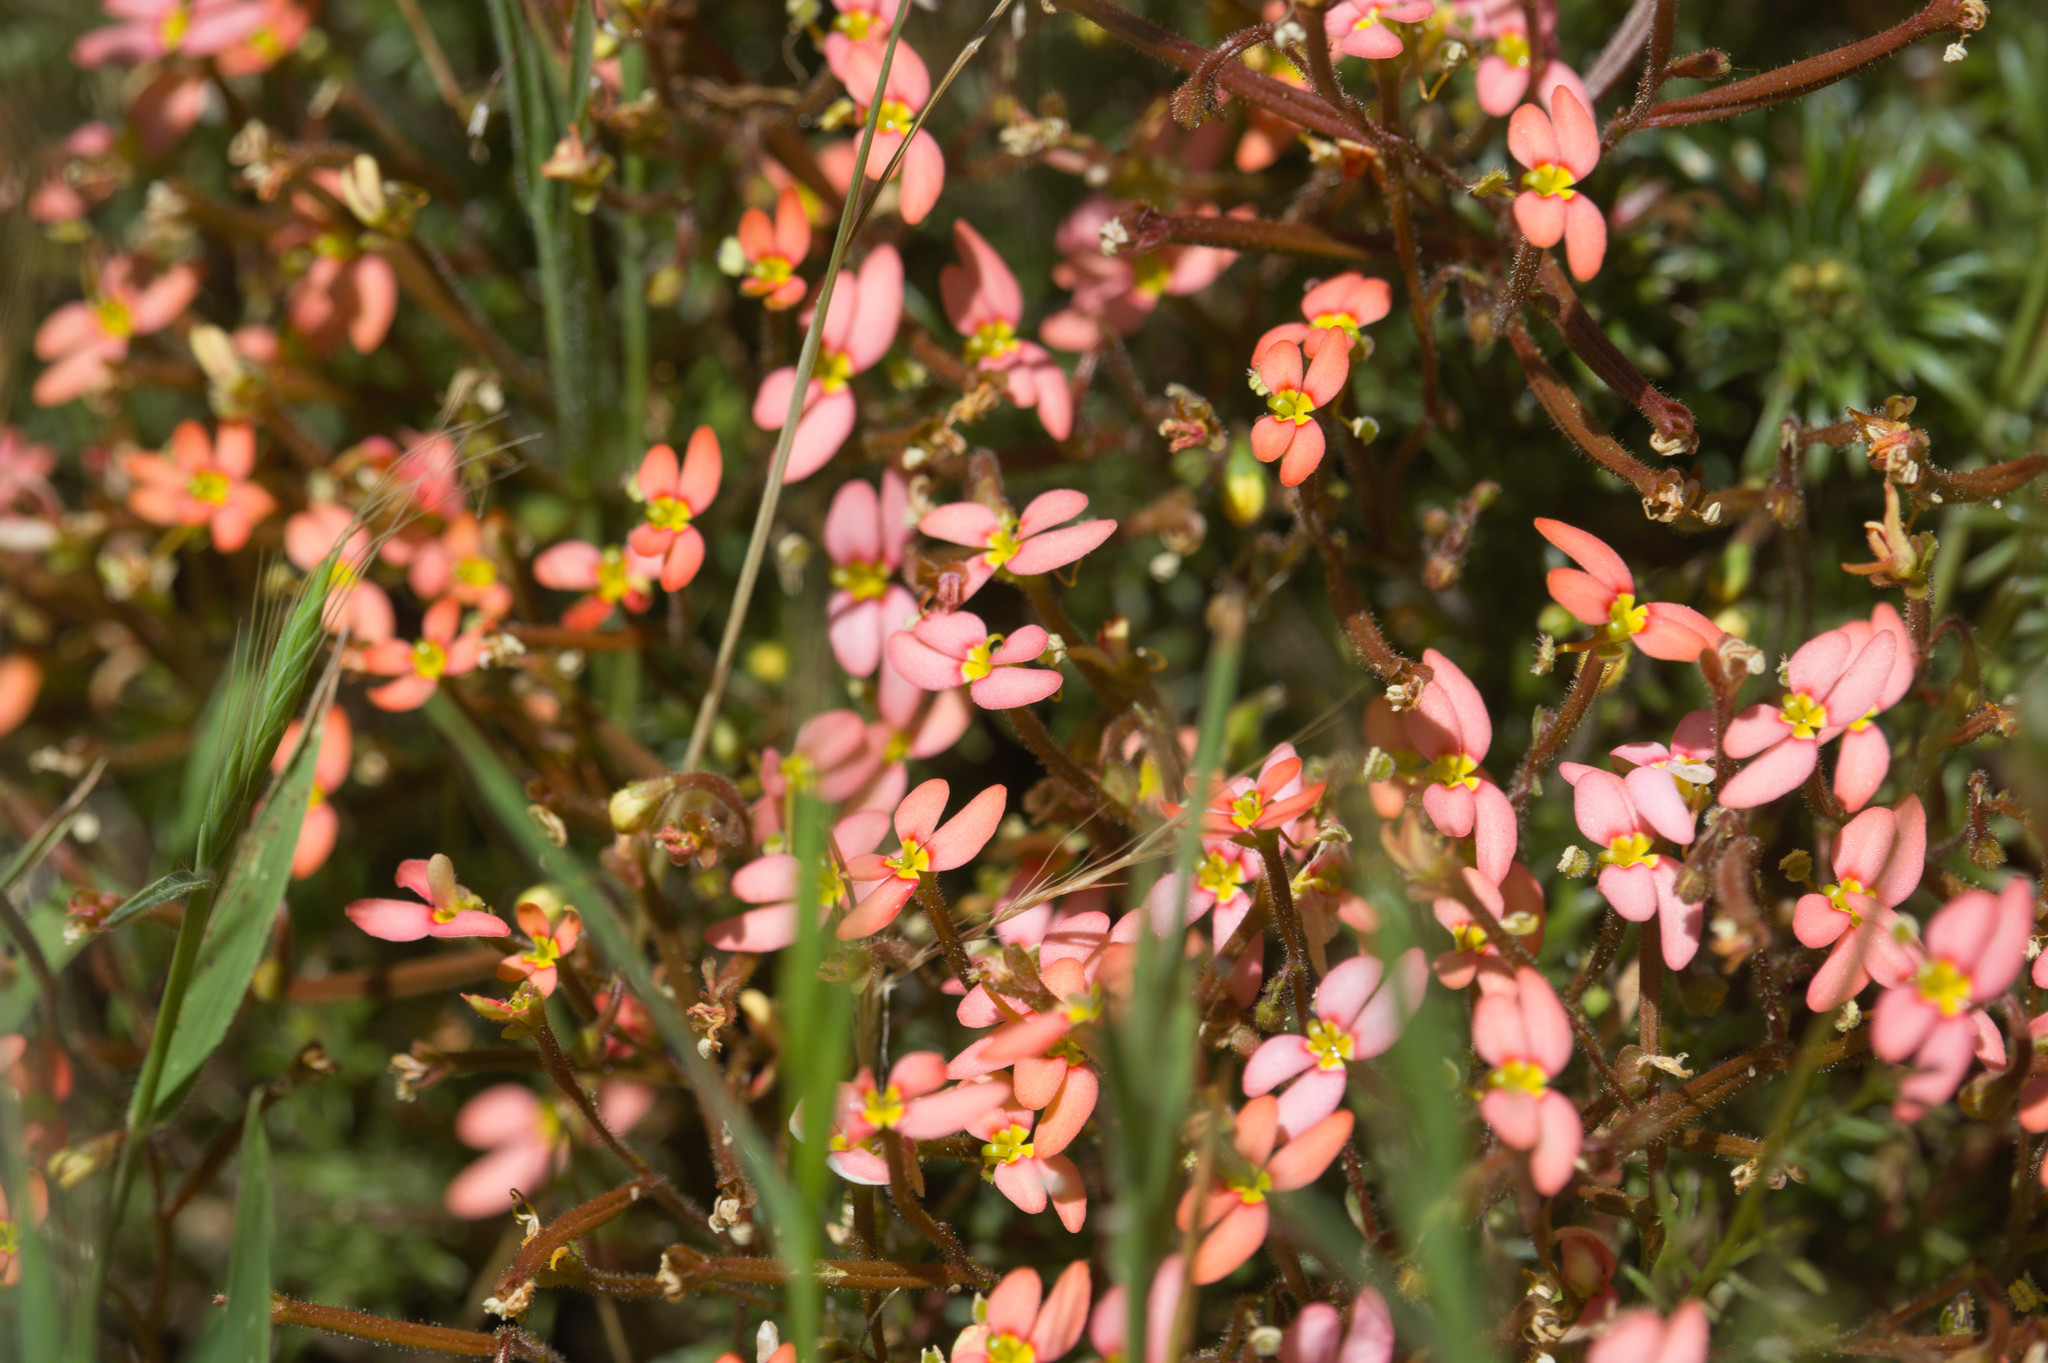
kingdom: Plantae
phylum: Tracheophyta
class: Magnoliopsida
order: Asterales
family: Stylidiaceae
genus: Stylidium
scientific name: Stylidium recurvum
